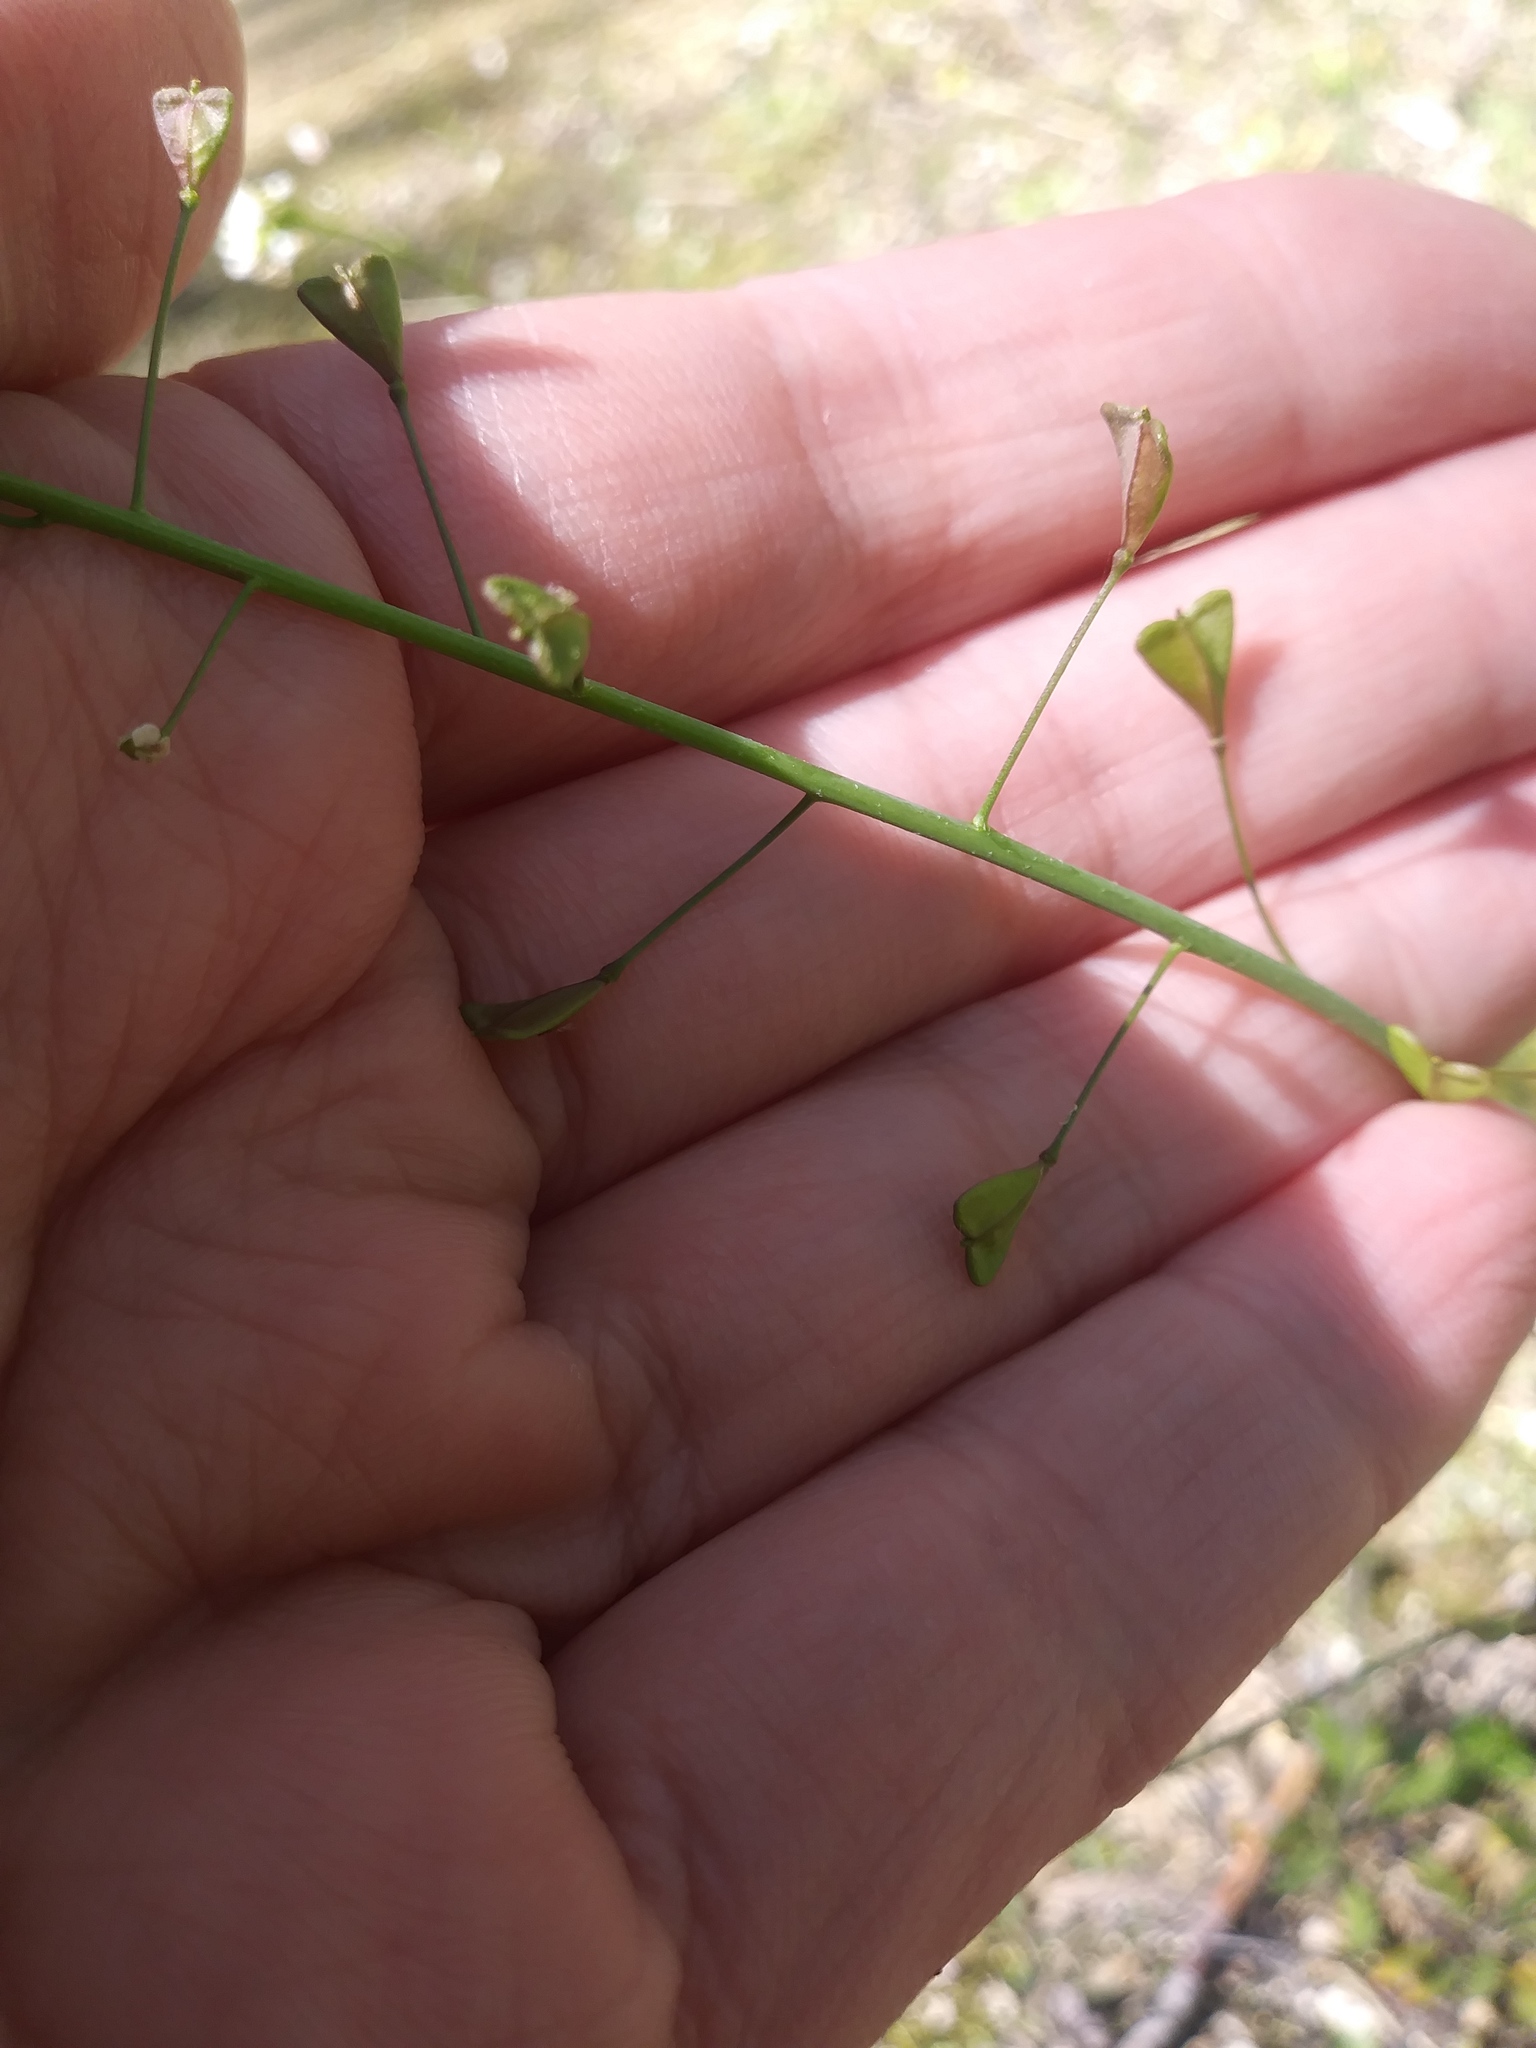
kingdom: Plantae
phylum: Tracheophyta
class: Magnoliopsida
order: Brassicales
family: Brassicaceae
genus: Capsella
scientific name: Capsella bursa-pastoris
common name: Shepherd's purse
